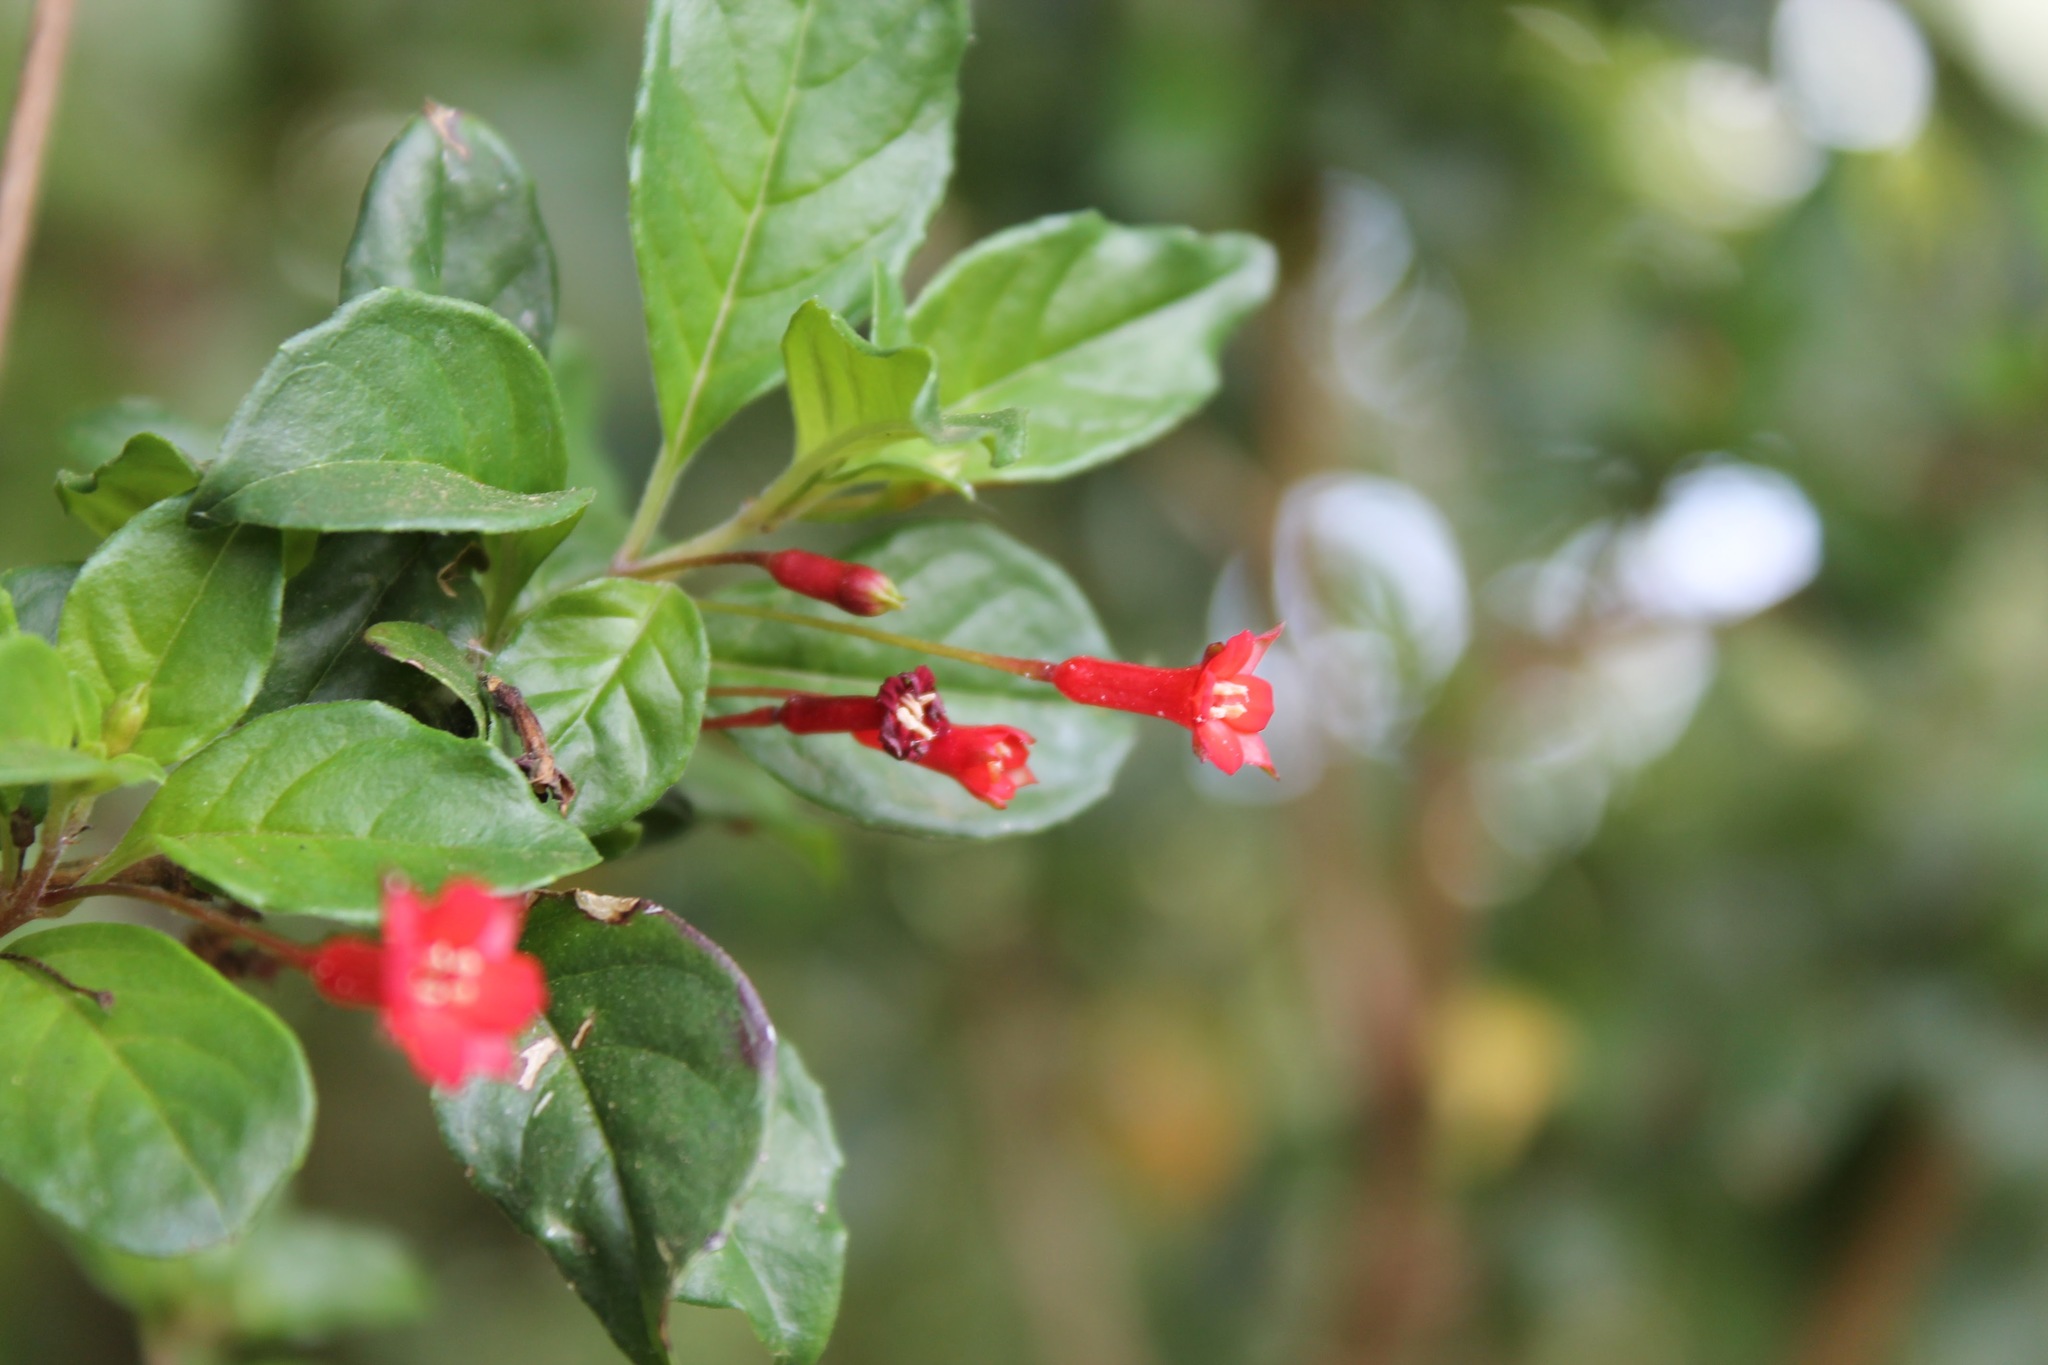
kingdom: Plantae
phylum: Tracheophyta
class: Magnoliopsida
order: Myrtales
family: Onagraceae
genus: Fuchsia
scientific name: Fuchsia parviflora
